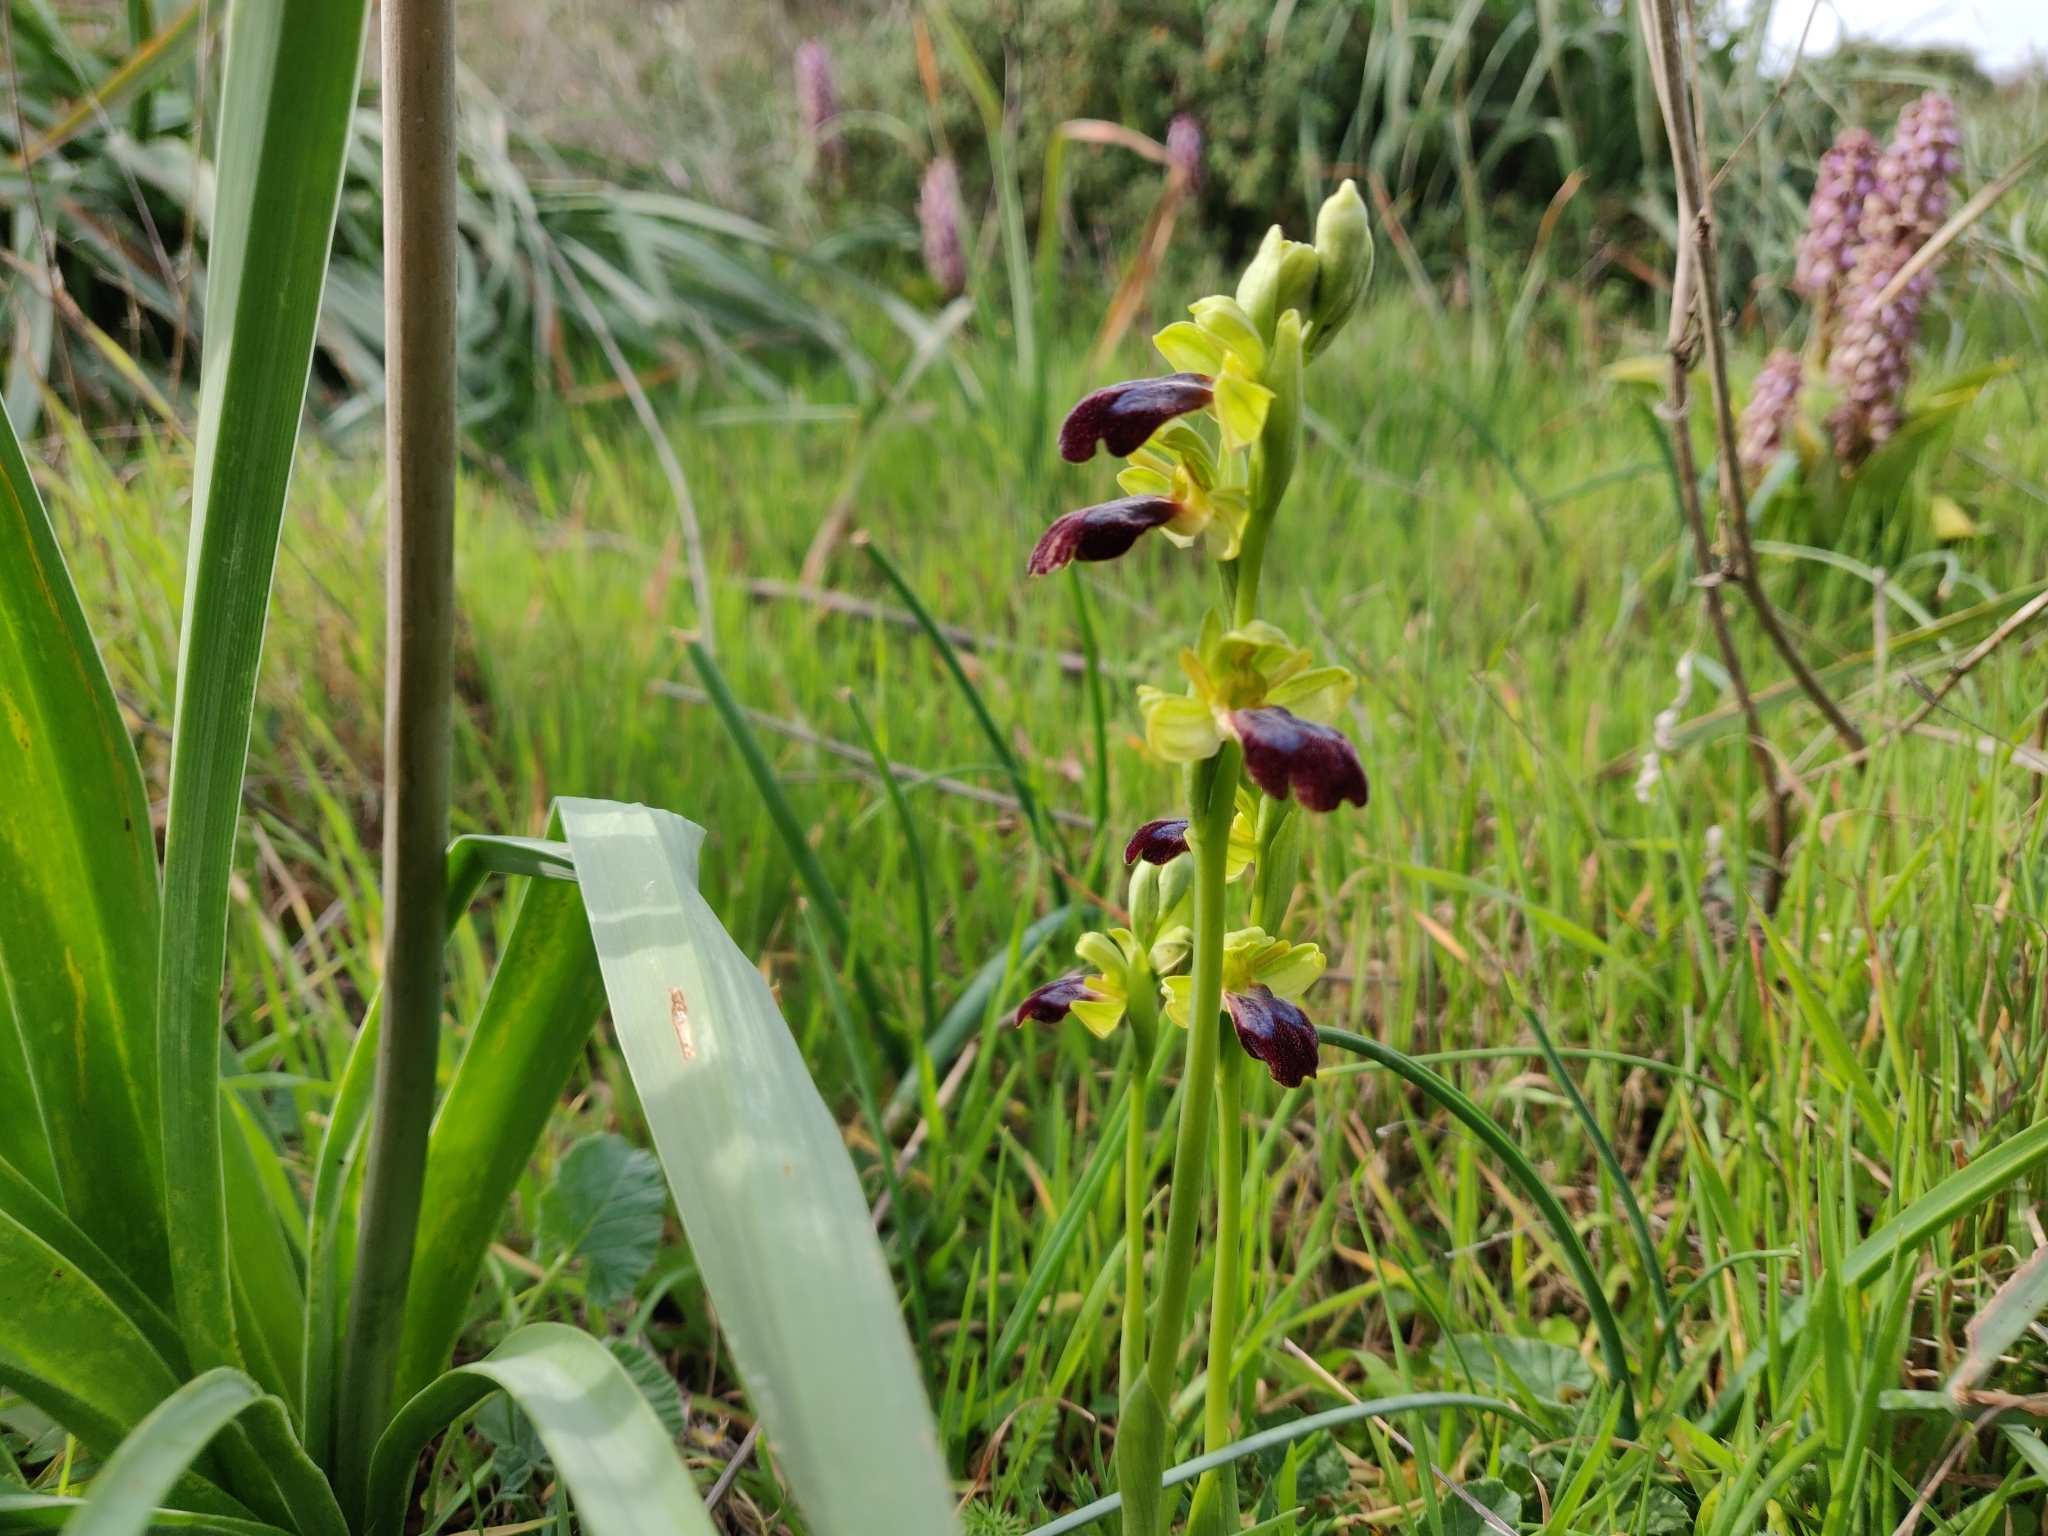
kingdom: Plantae
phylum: Tracheophyta
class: Liliopsida
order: Asparagales
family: Orchidaceae
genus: Ophrys
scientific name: Ophrys fusca
